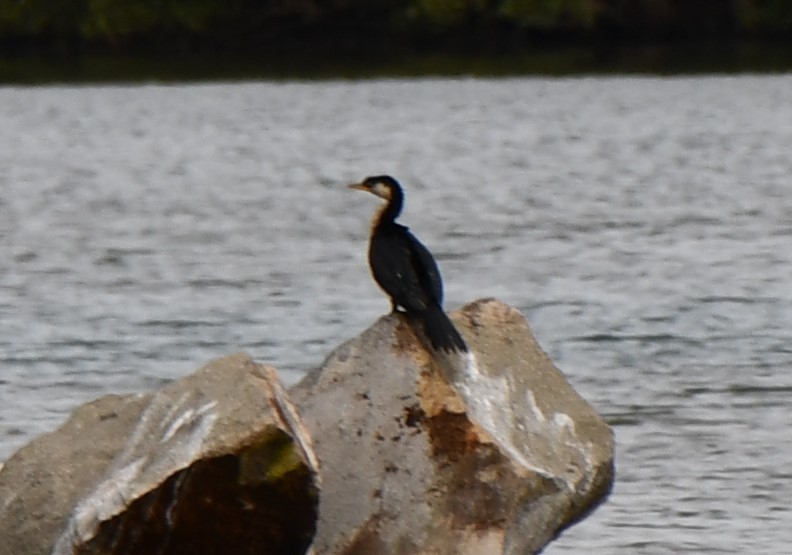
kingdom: Animalia
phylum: Chordata
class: Aves
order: Suliformes
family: Phalacrocoracidae
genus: Microcarbo
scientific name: Microcarbo melanoleucos
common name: Little pied cormorant
